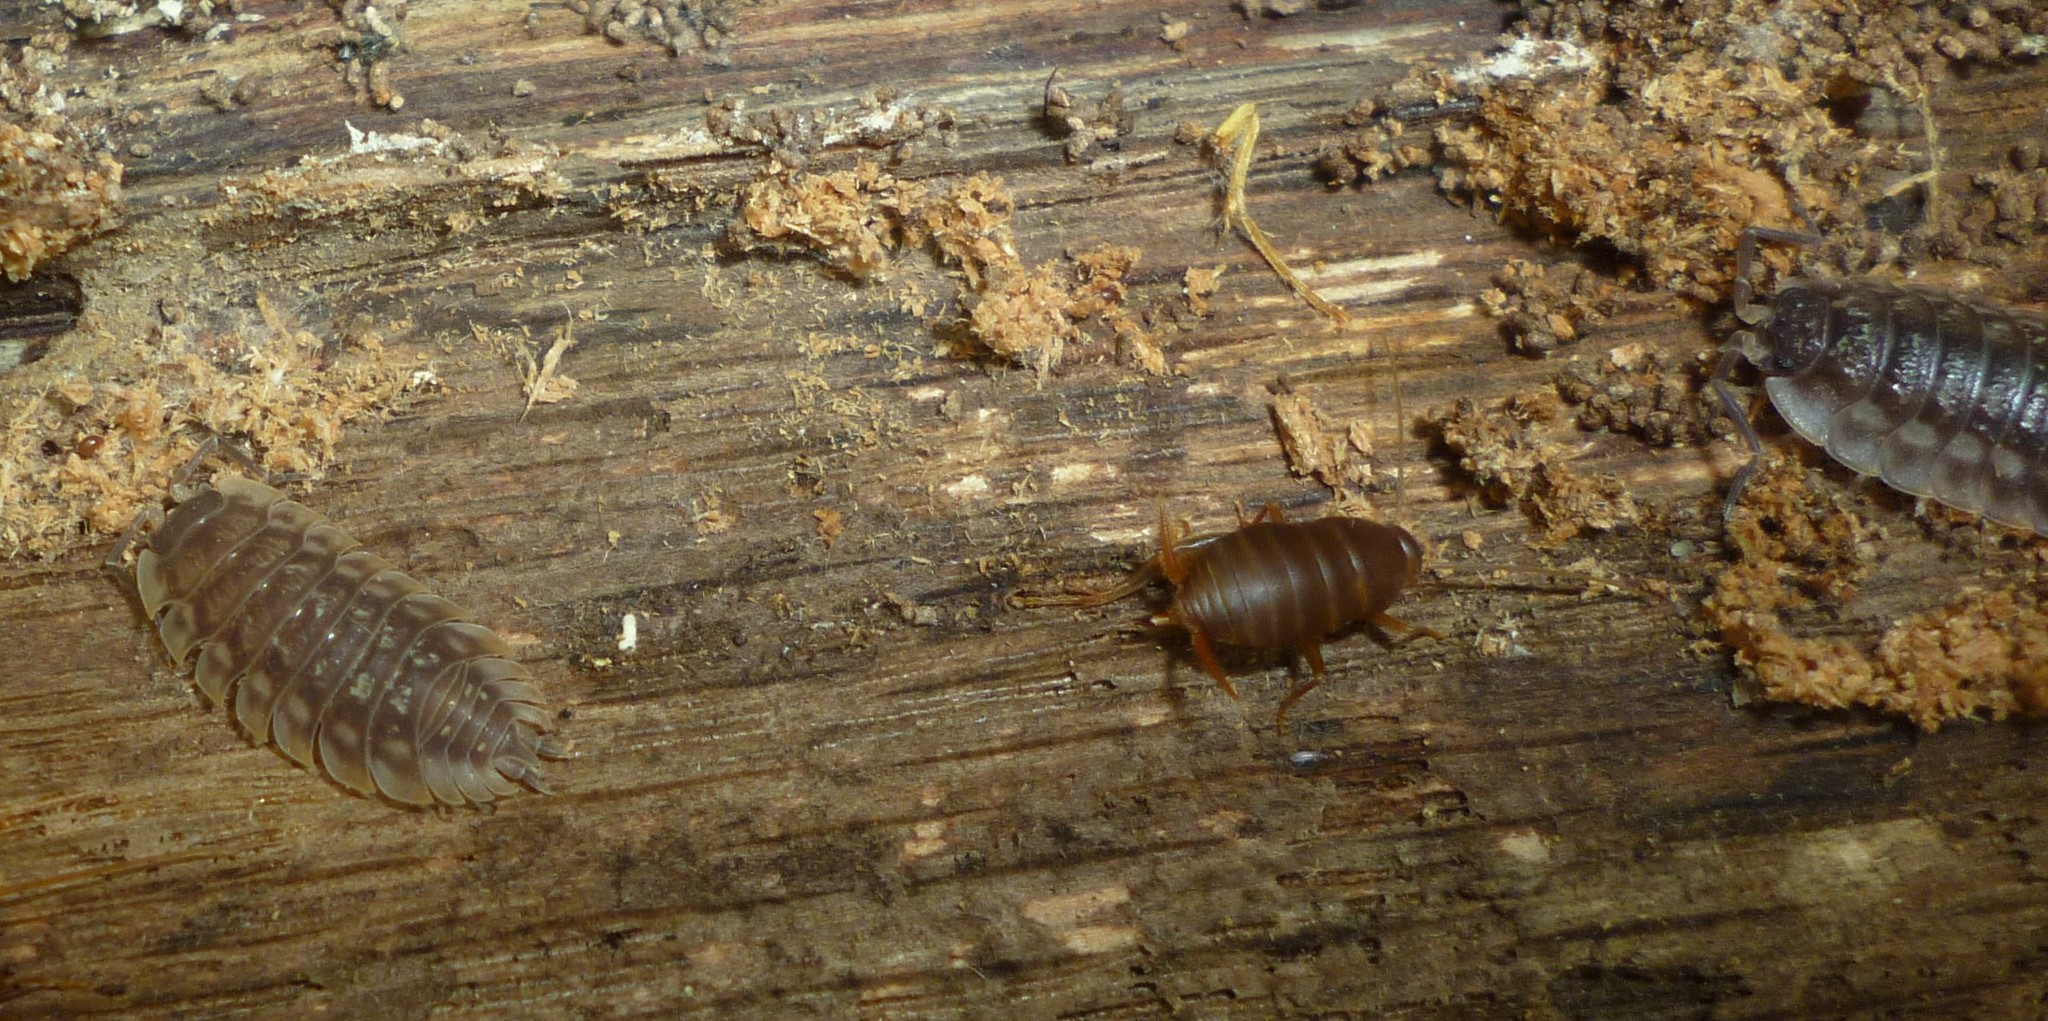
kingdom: Animalia
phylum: Arthropoda
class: Malacostraca
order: Isopoda
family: Oniscidae
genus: Oniscus
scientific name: Oniscus asellus
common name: Common shiny woodlouse
